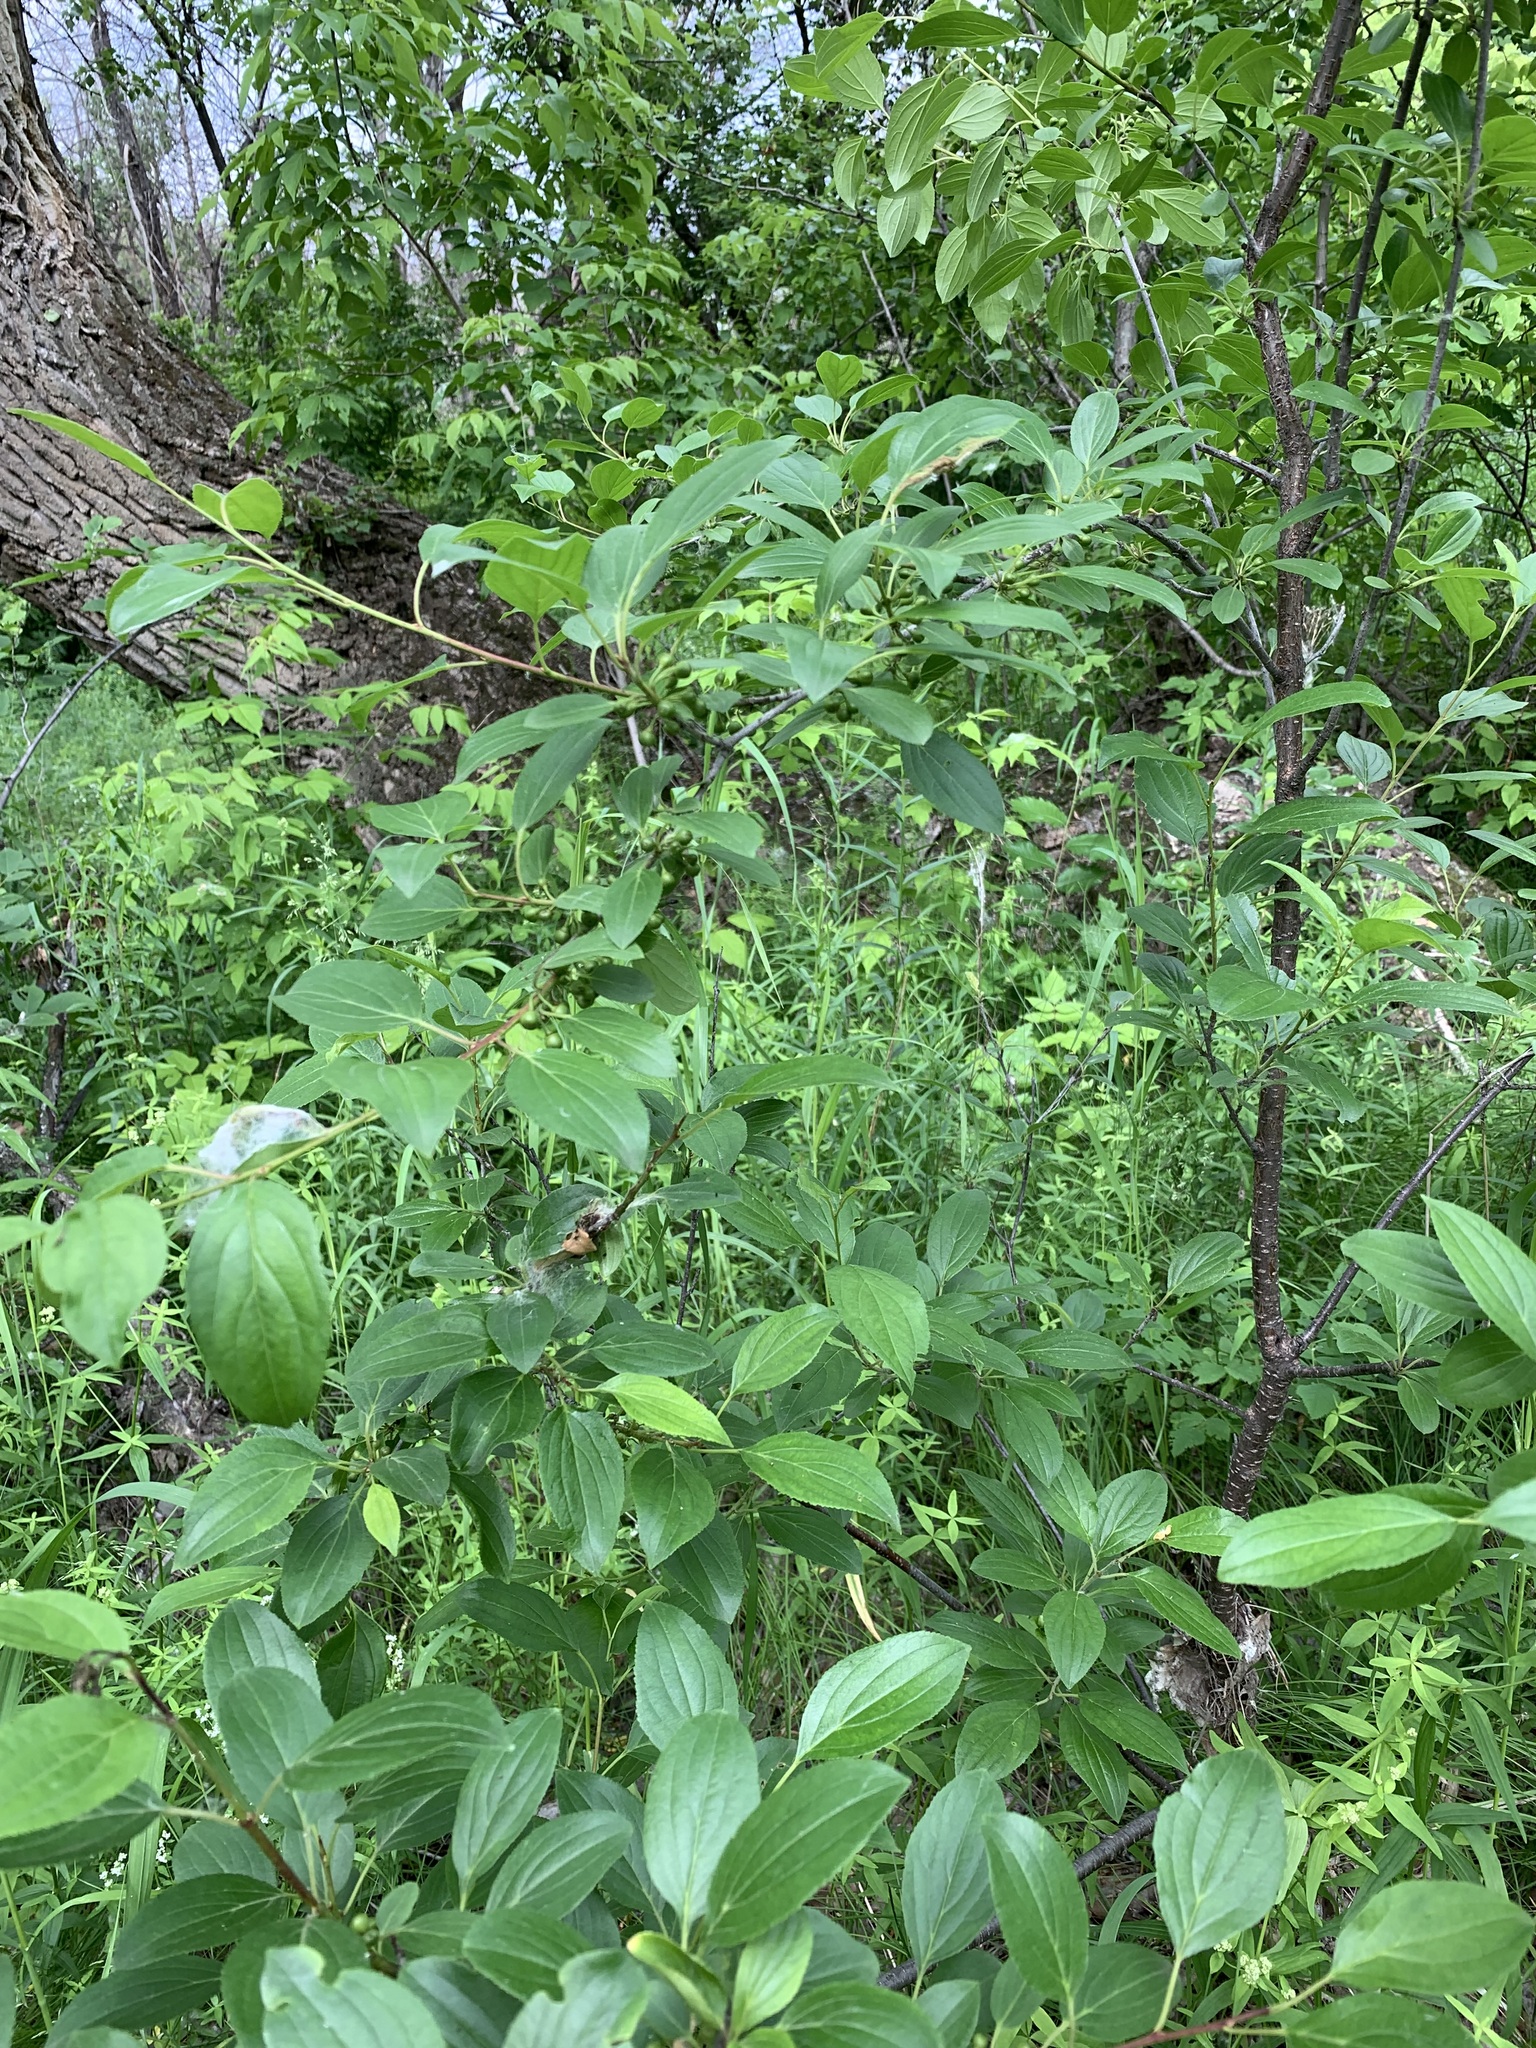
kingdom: Plantae
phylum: Tracheophyta
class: Magnoliopsida
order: Rosales
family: Rhamnaceae
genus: Rhamnus
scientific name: Rhamnus cathartica
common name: Common buckthorn
